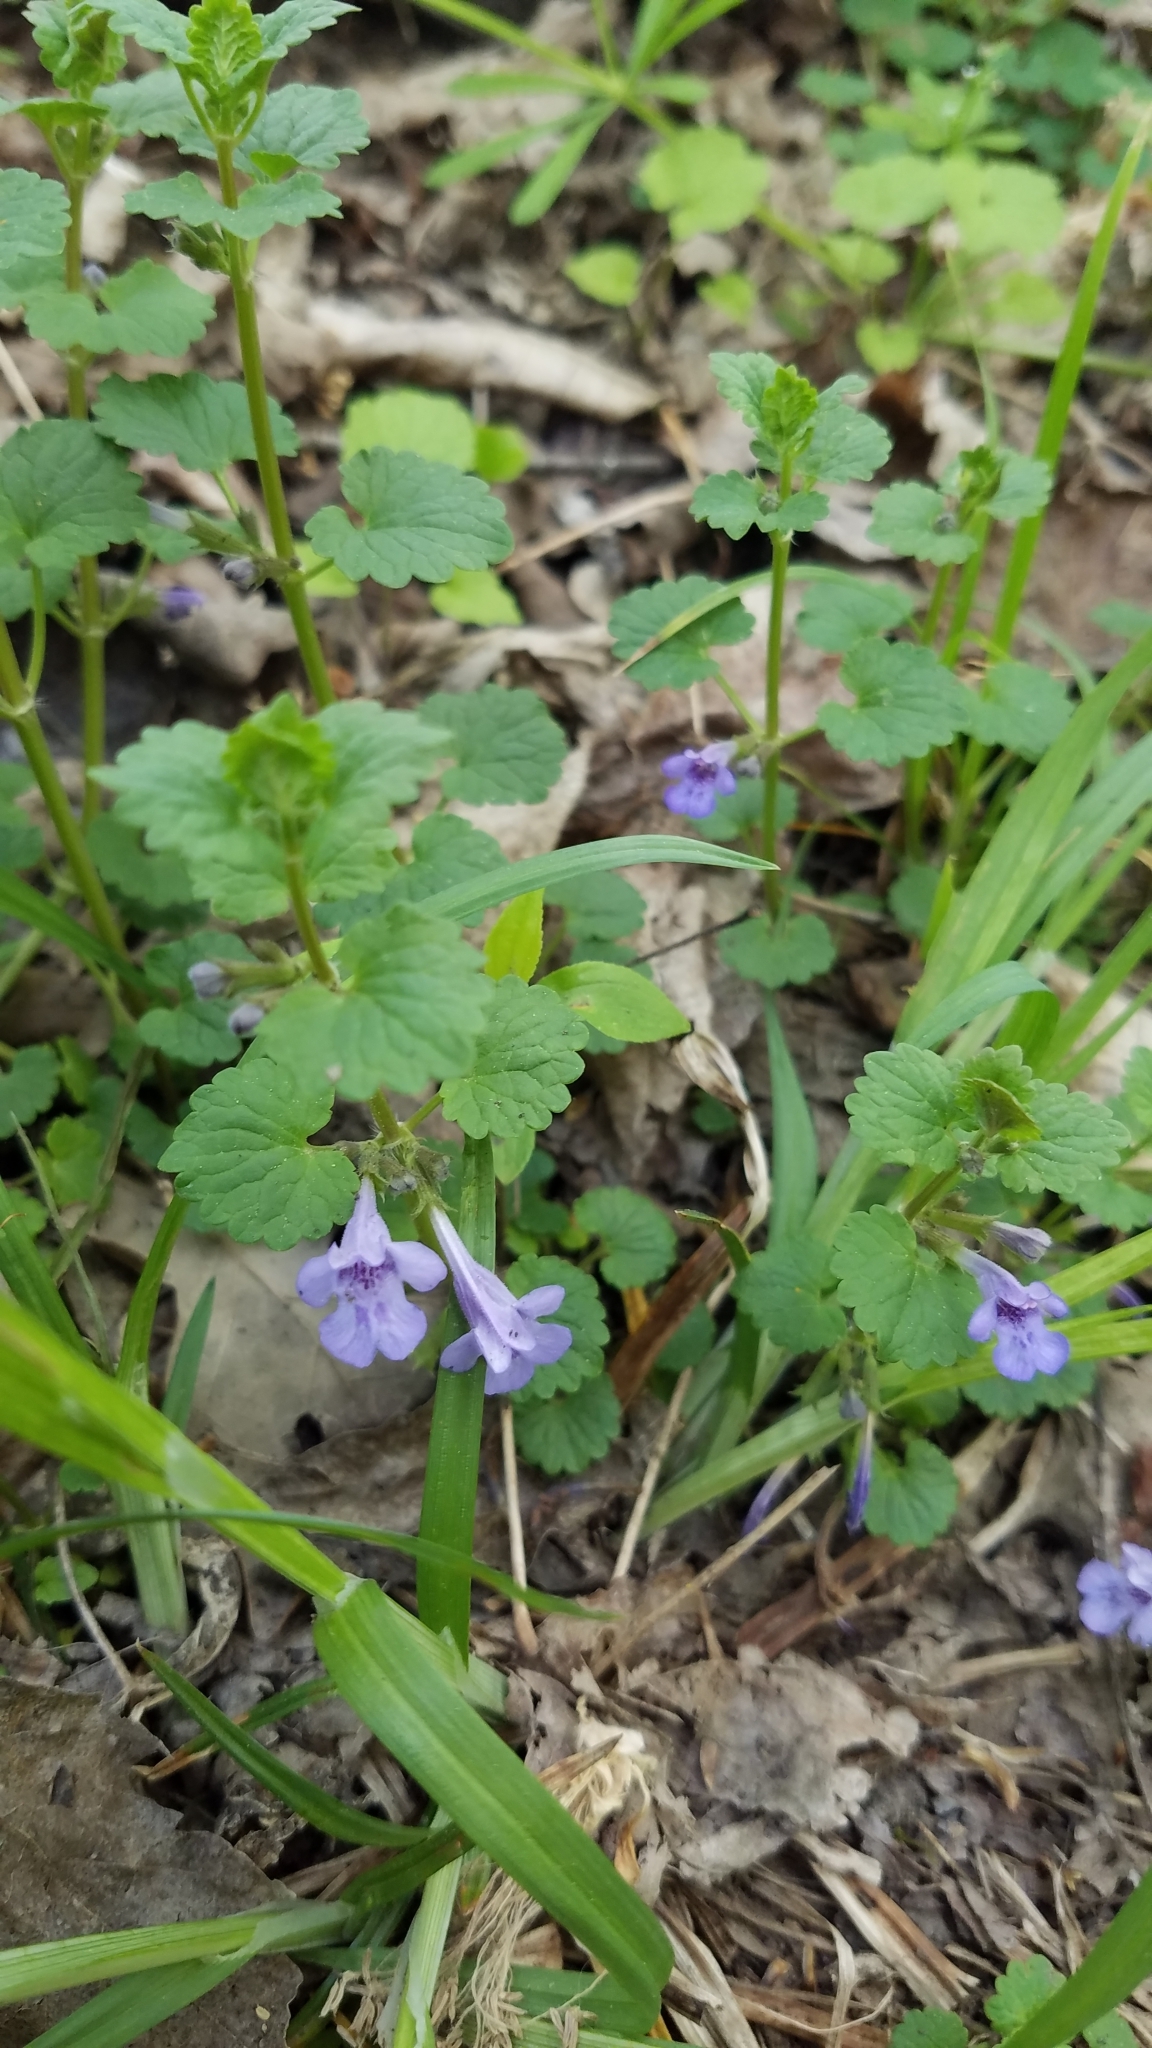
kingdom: Plantae
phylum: Tracheophyta
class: Magnoliopsida
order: Lamiales
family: Lamiaceae
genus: Glechoma
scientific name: Glechoma hederacea
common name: Ground ivy
